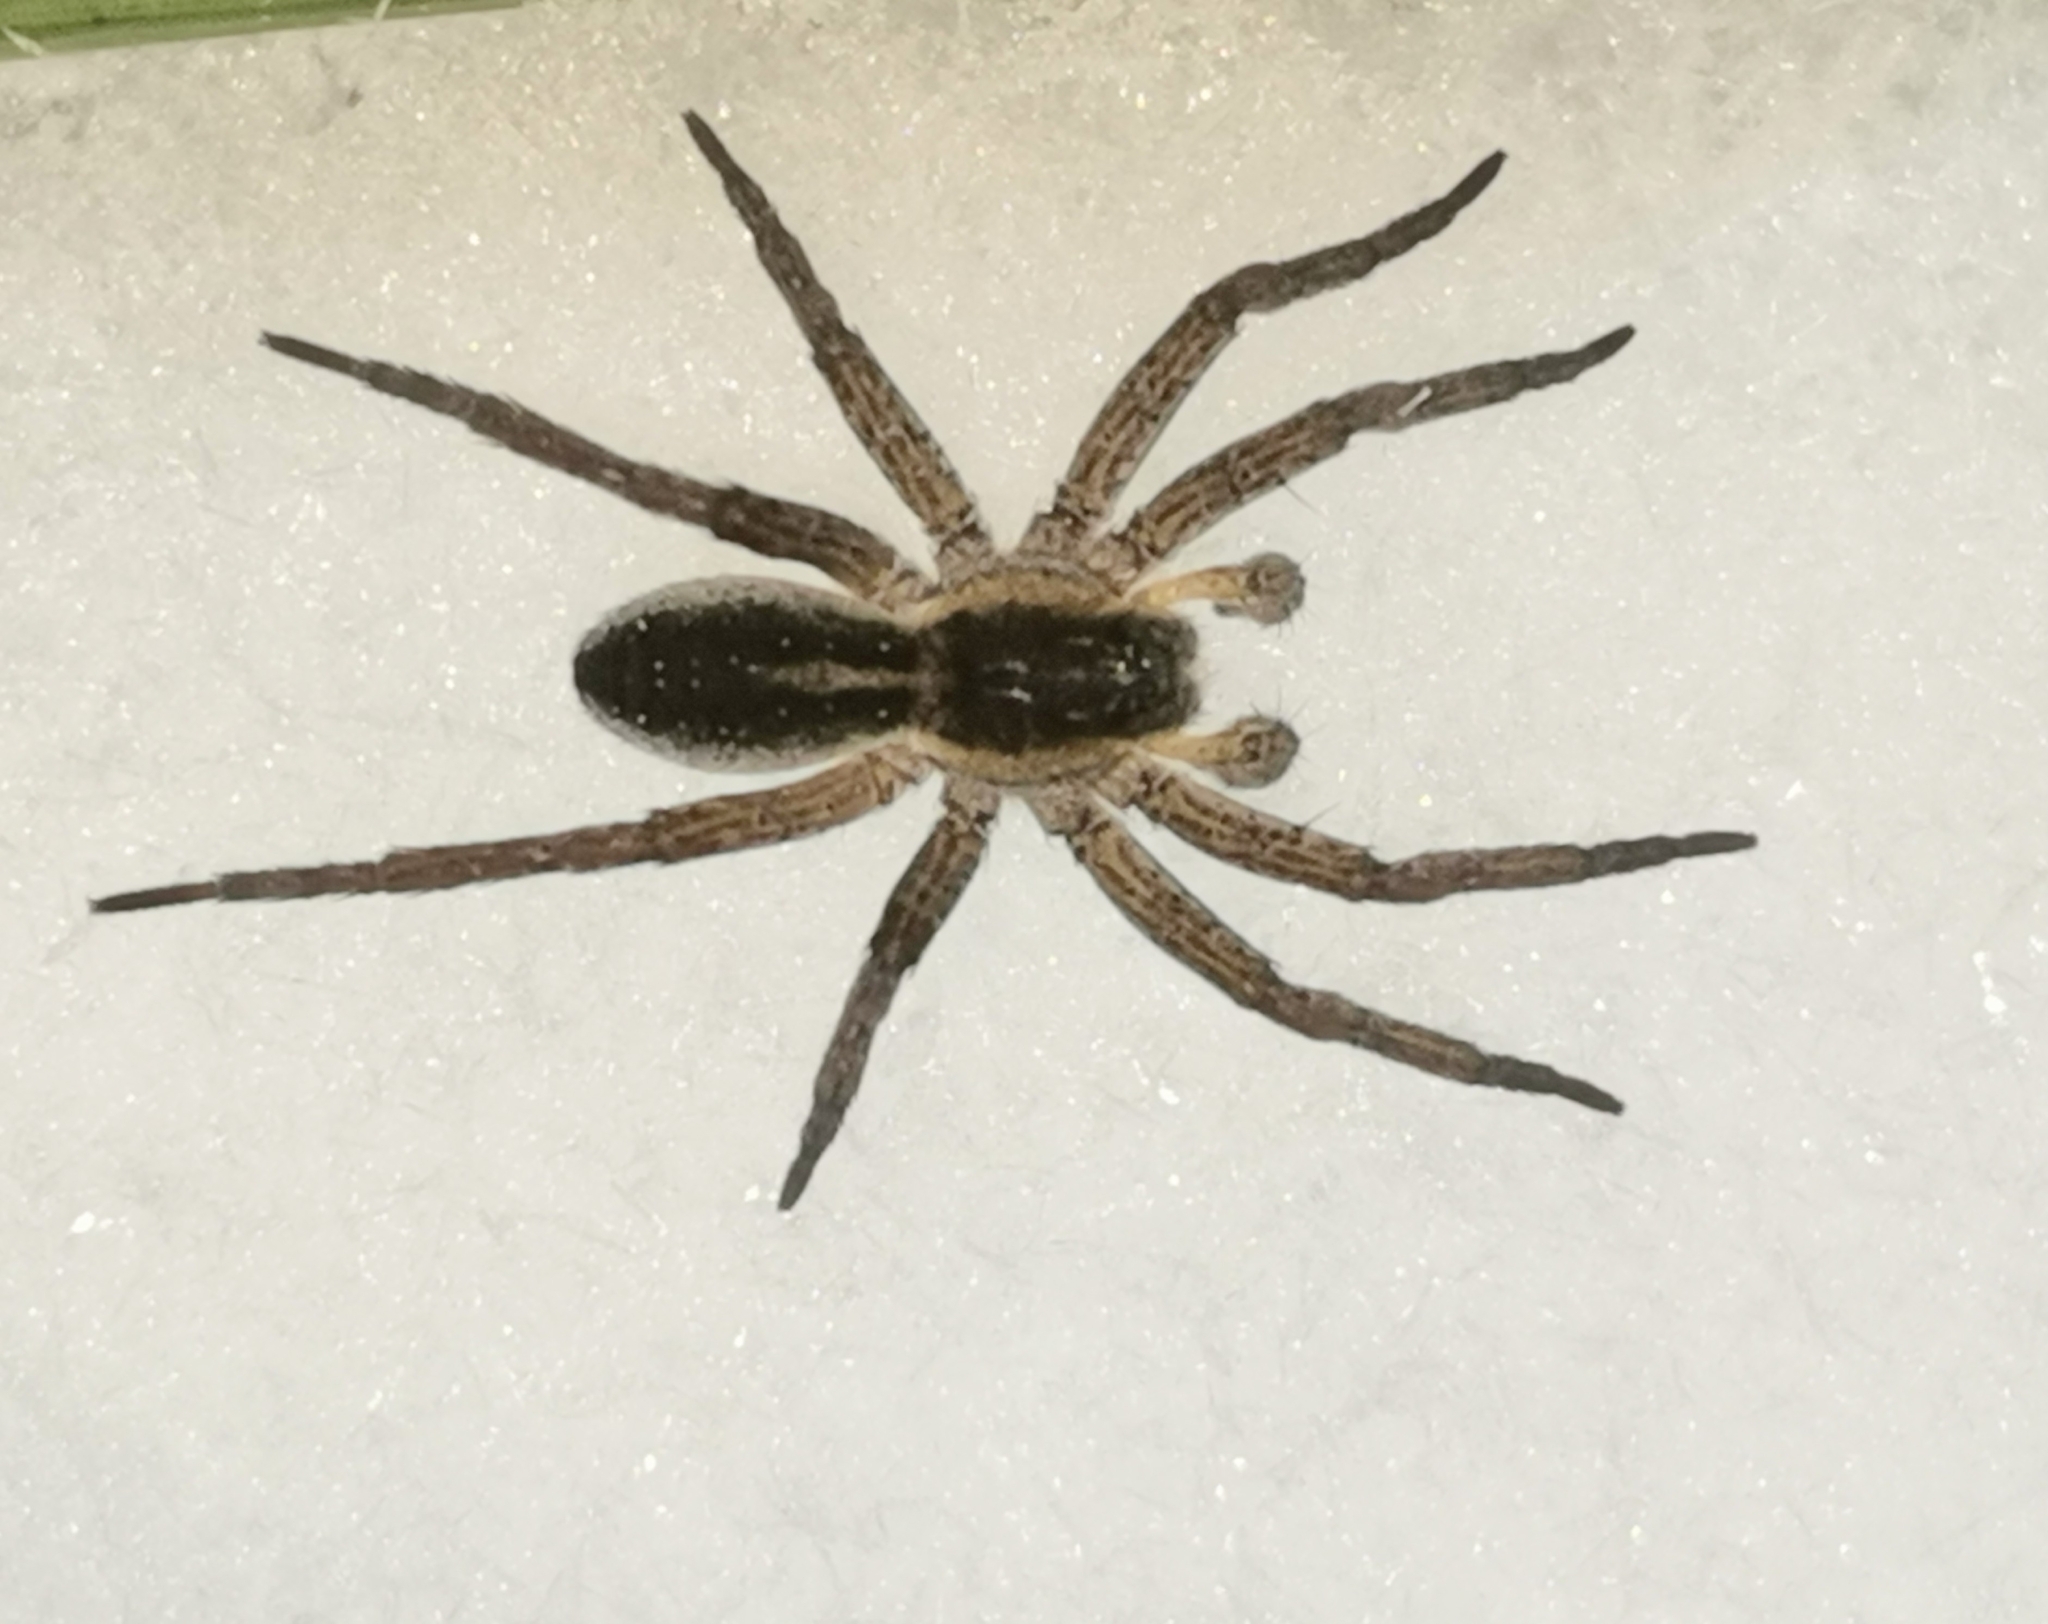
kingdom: Animalia
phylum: Arthropoda
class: Arachnida
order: Araneae
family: Pisauridae
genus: Dolomedes
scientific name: Dolomedes
